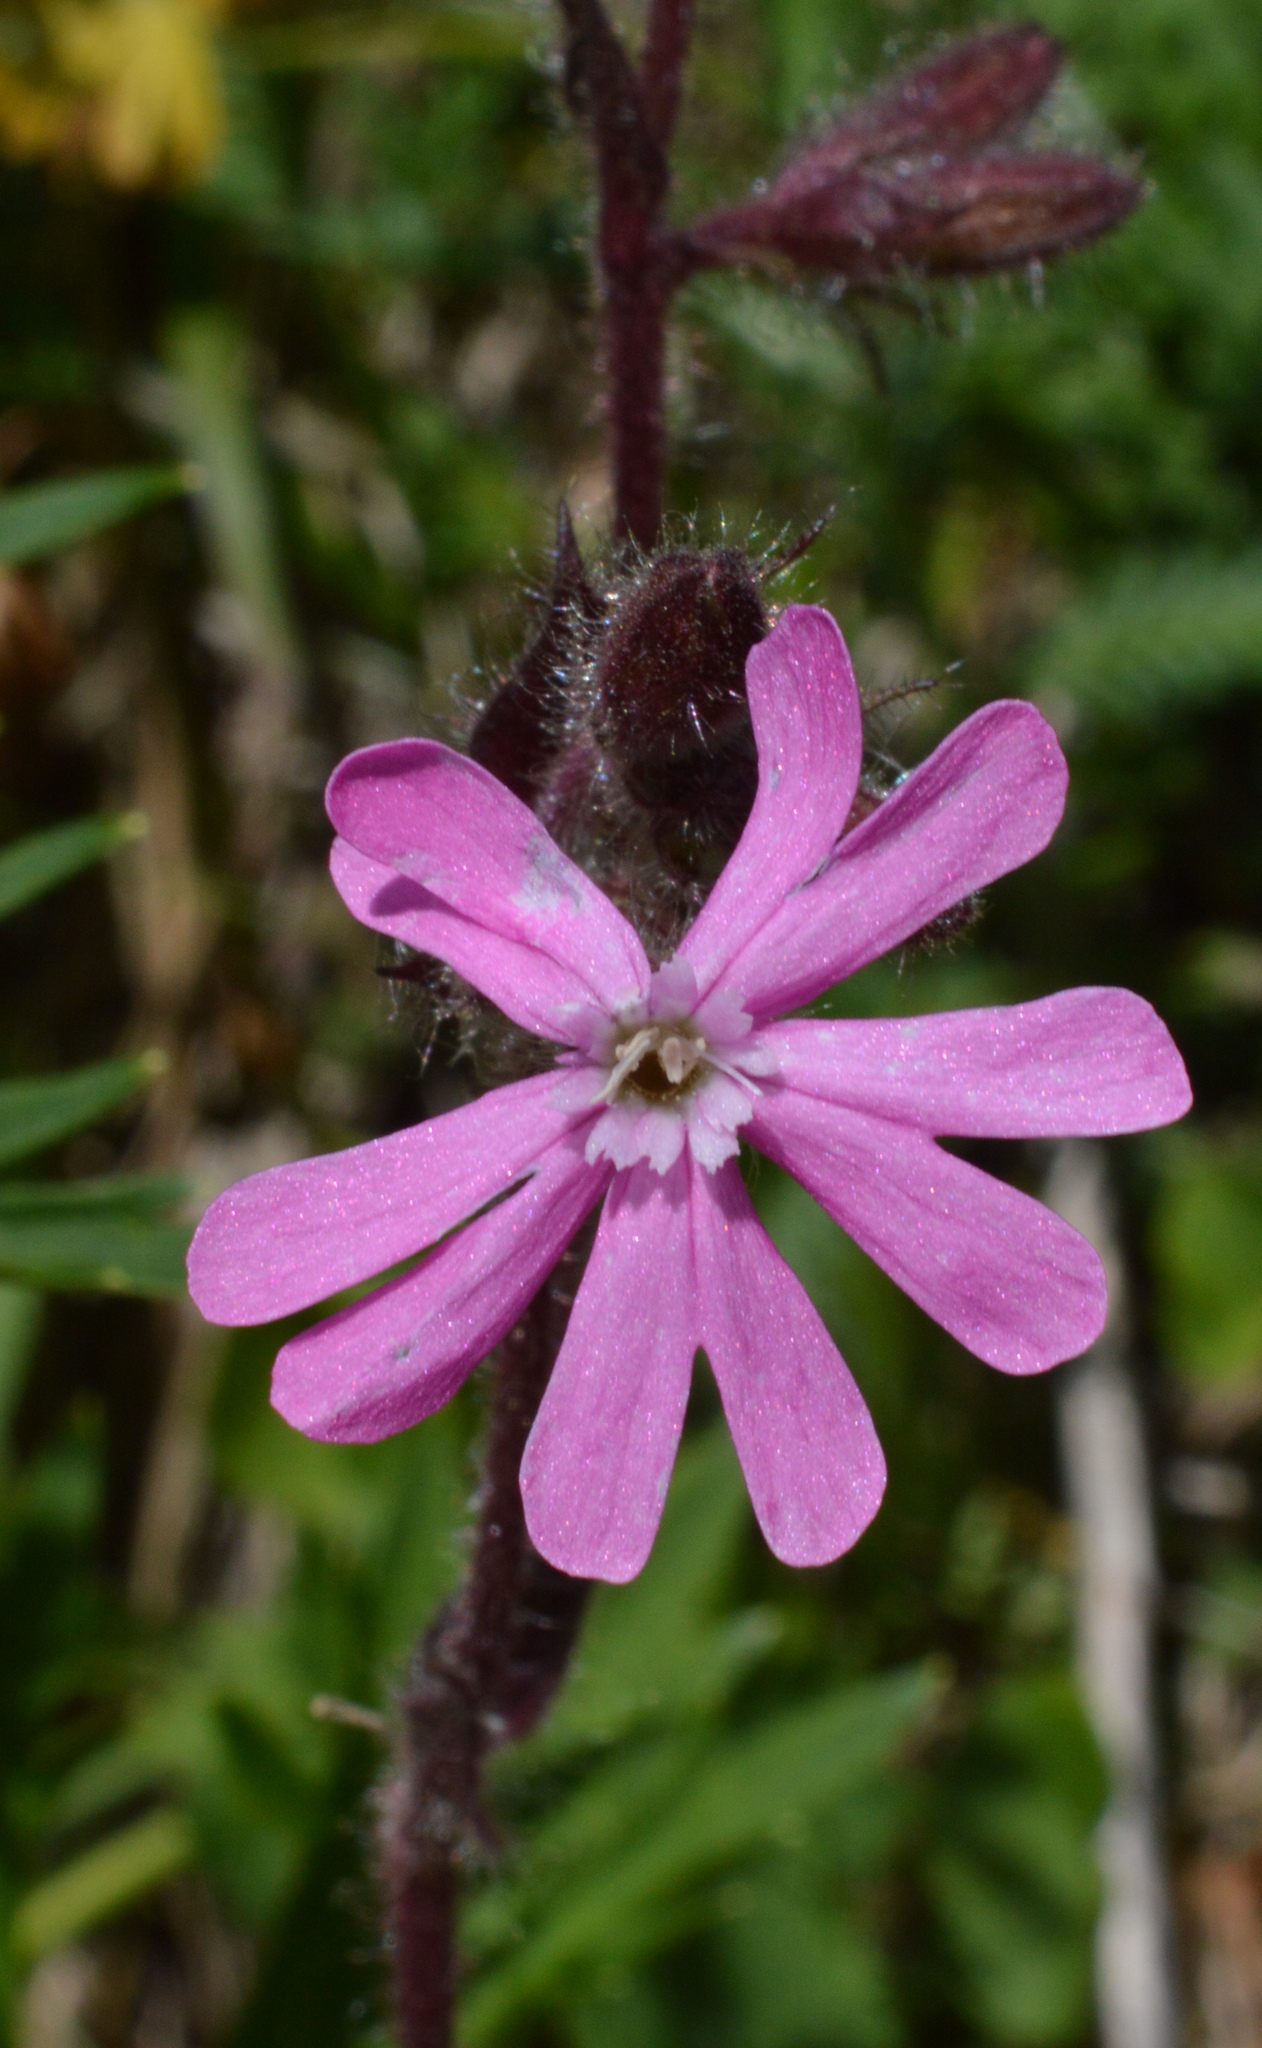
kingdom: Plantae
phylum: Tracheophyta
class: Magnoliopsida
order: Caryophyllales
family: Caryophyllaceae
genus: Silene
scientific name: Silene dioica
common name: Red campion
